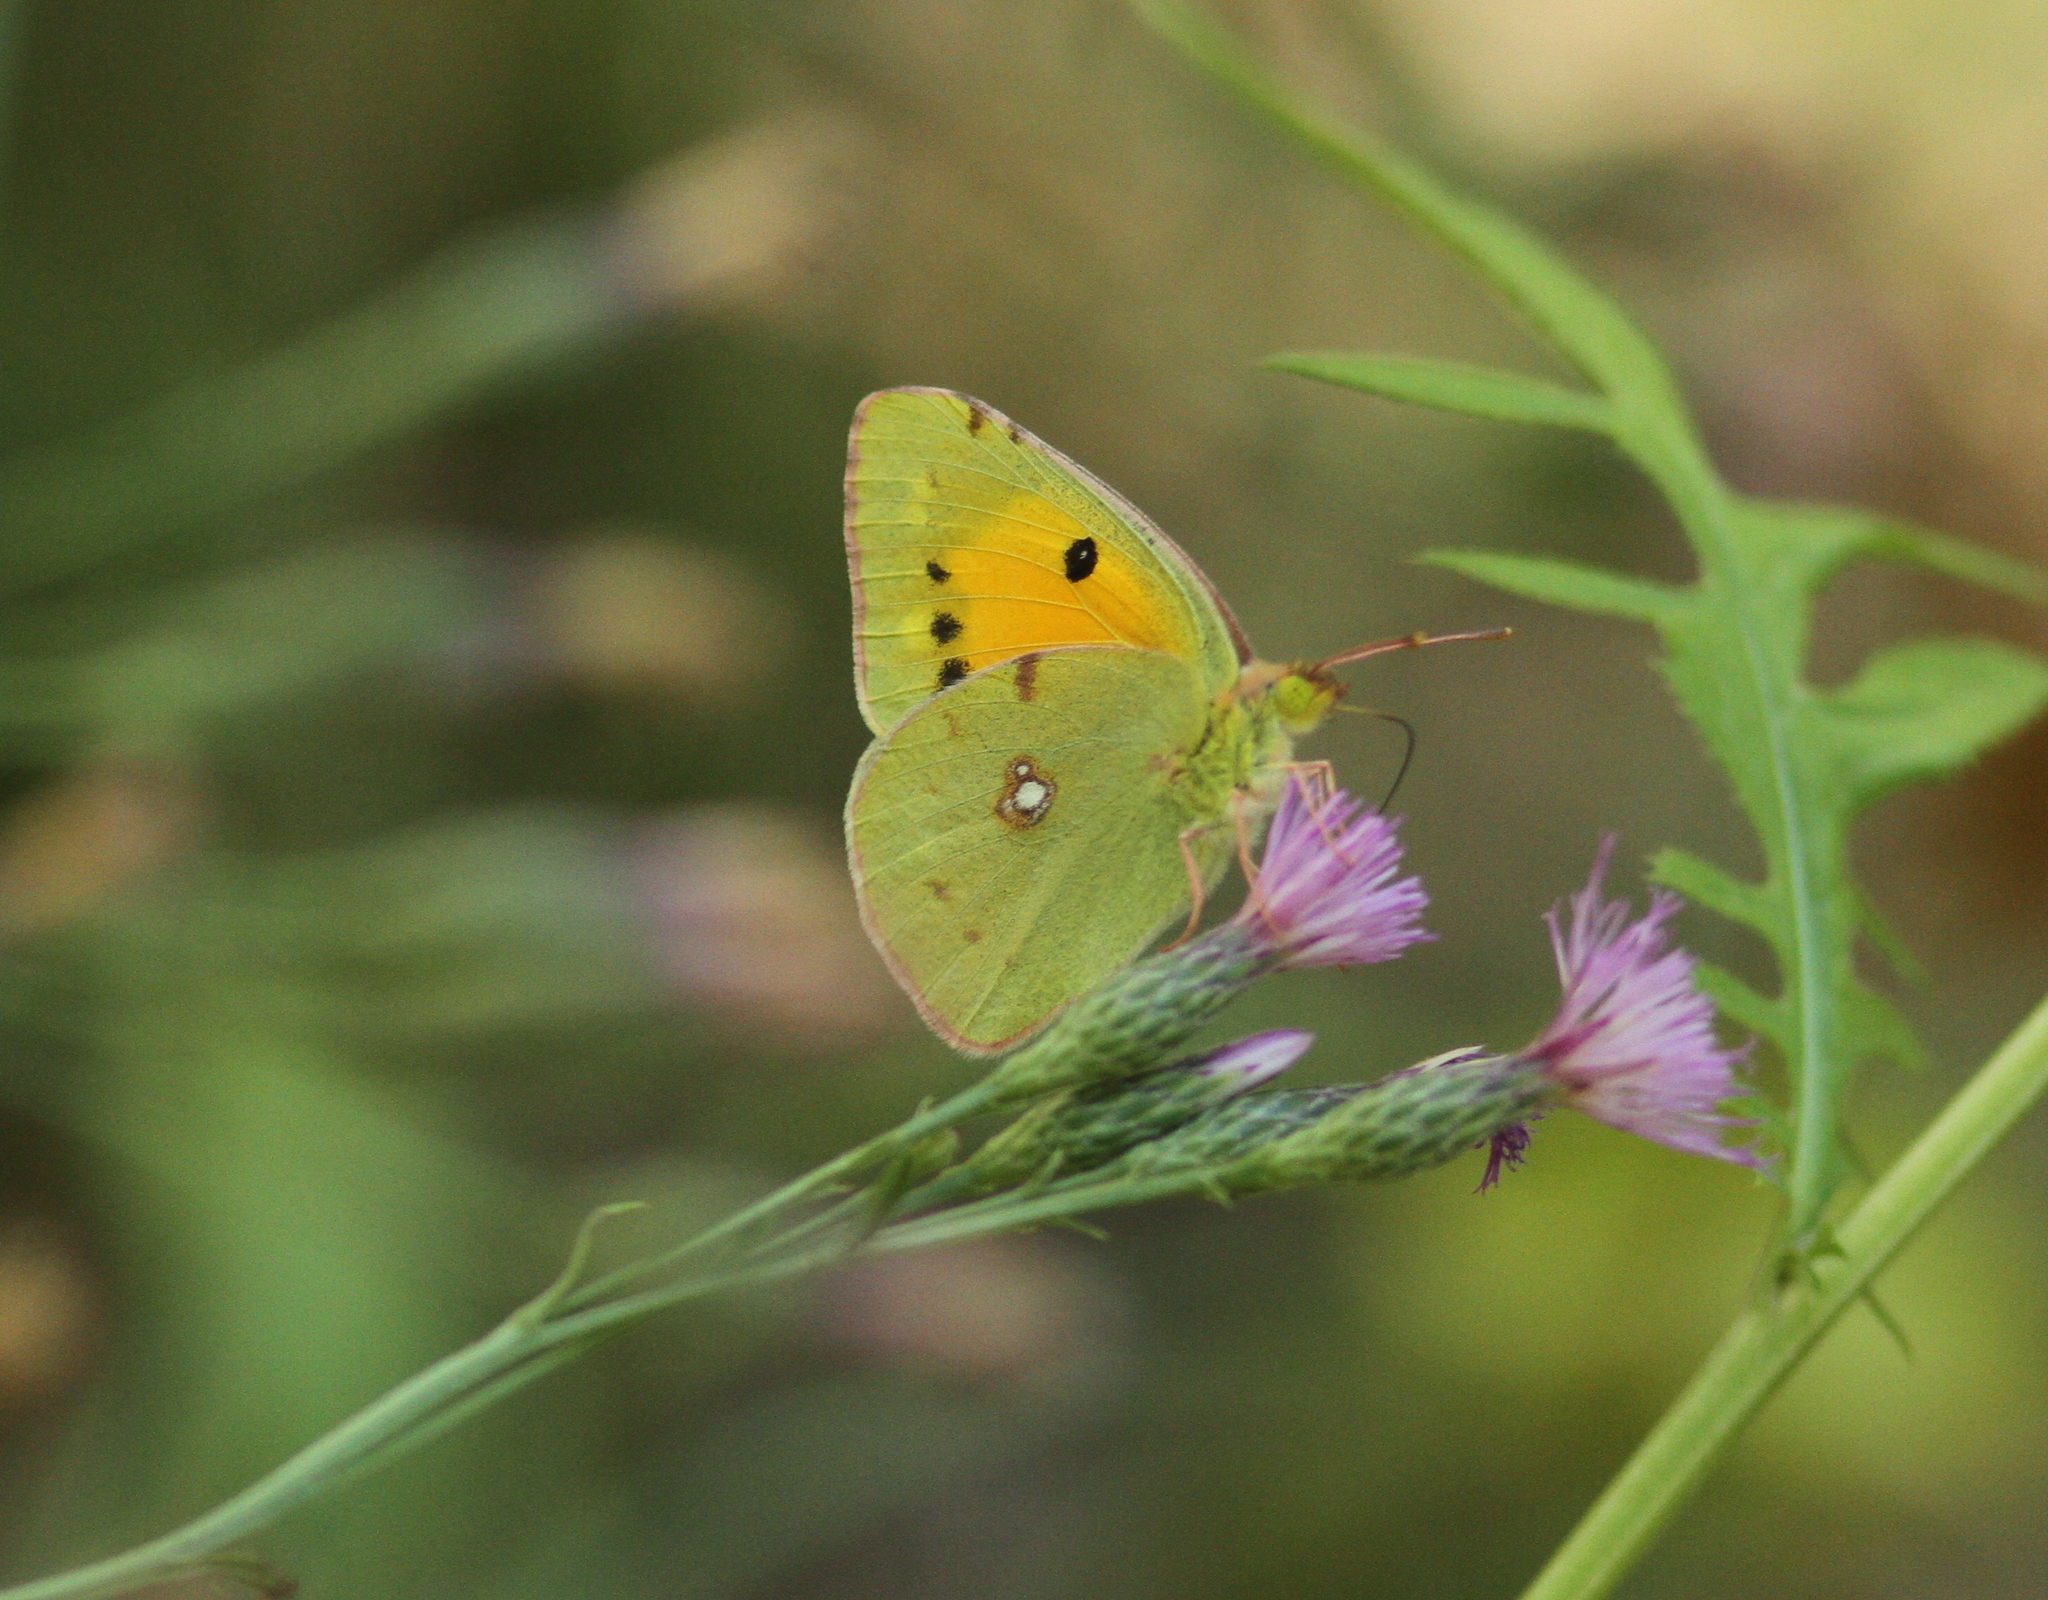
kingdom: Animalia
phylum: Arthropoda
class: Insecta
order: Lepidoptera
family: Pieridae
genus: Colias
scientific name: Colias croceus
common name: Clouded yellow
